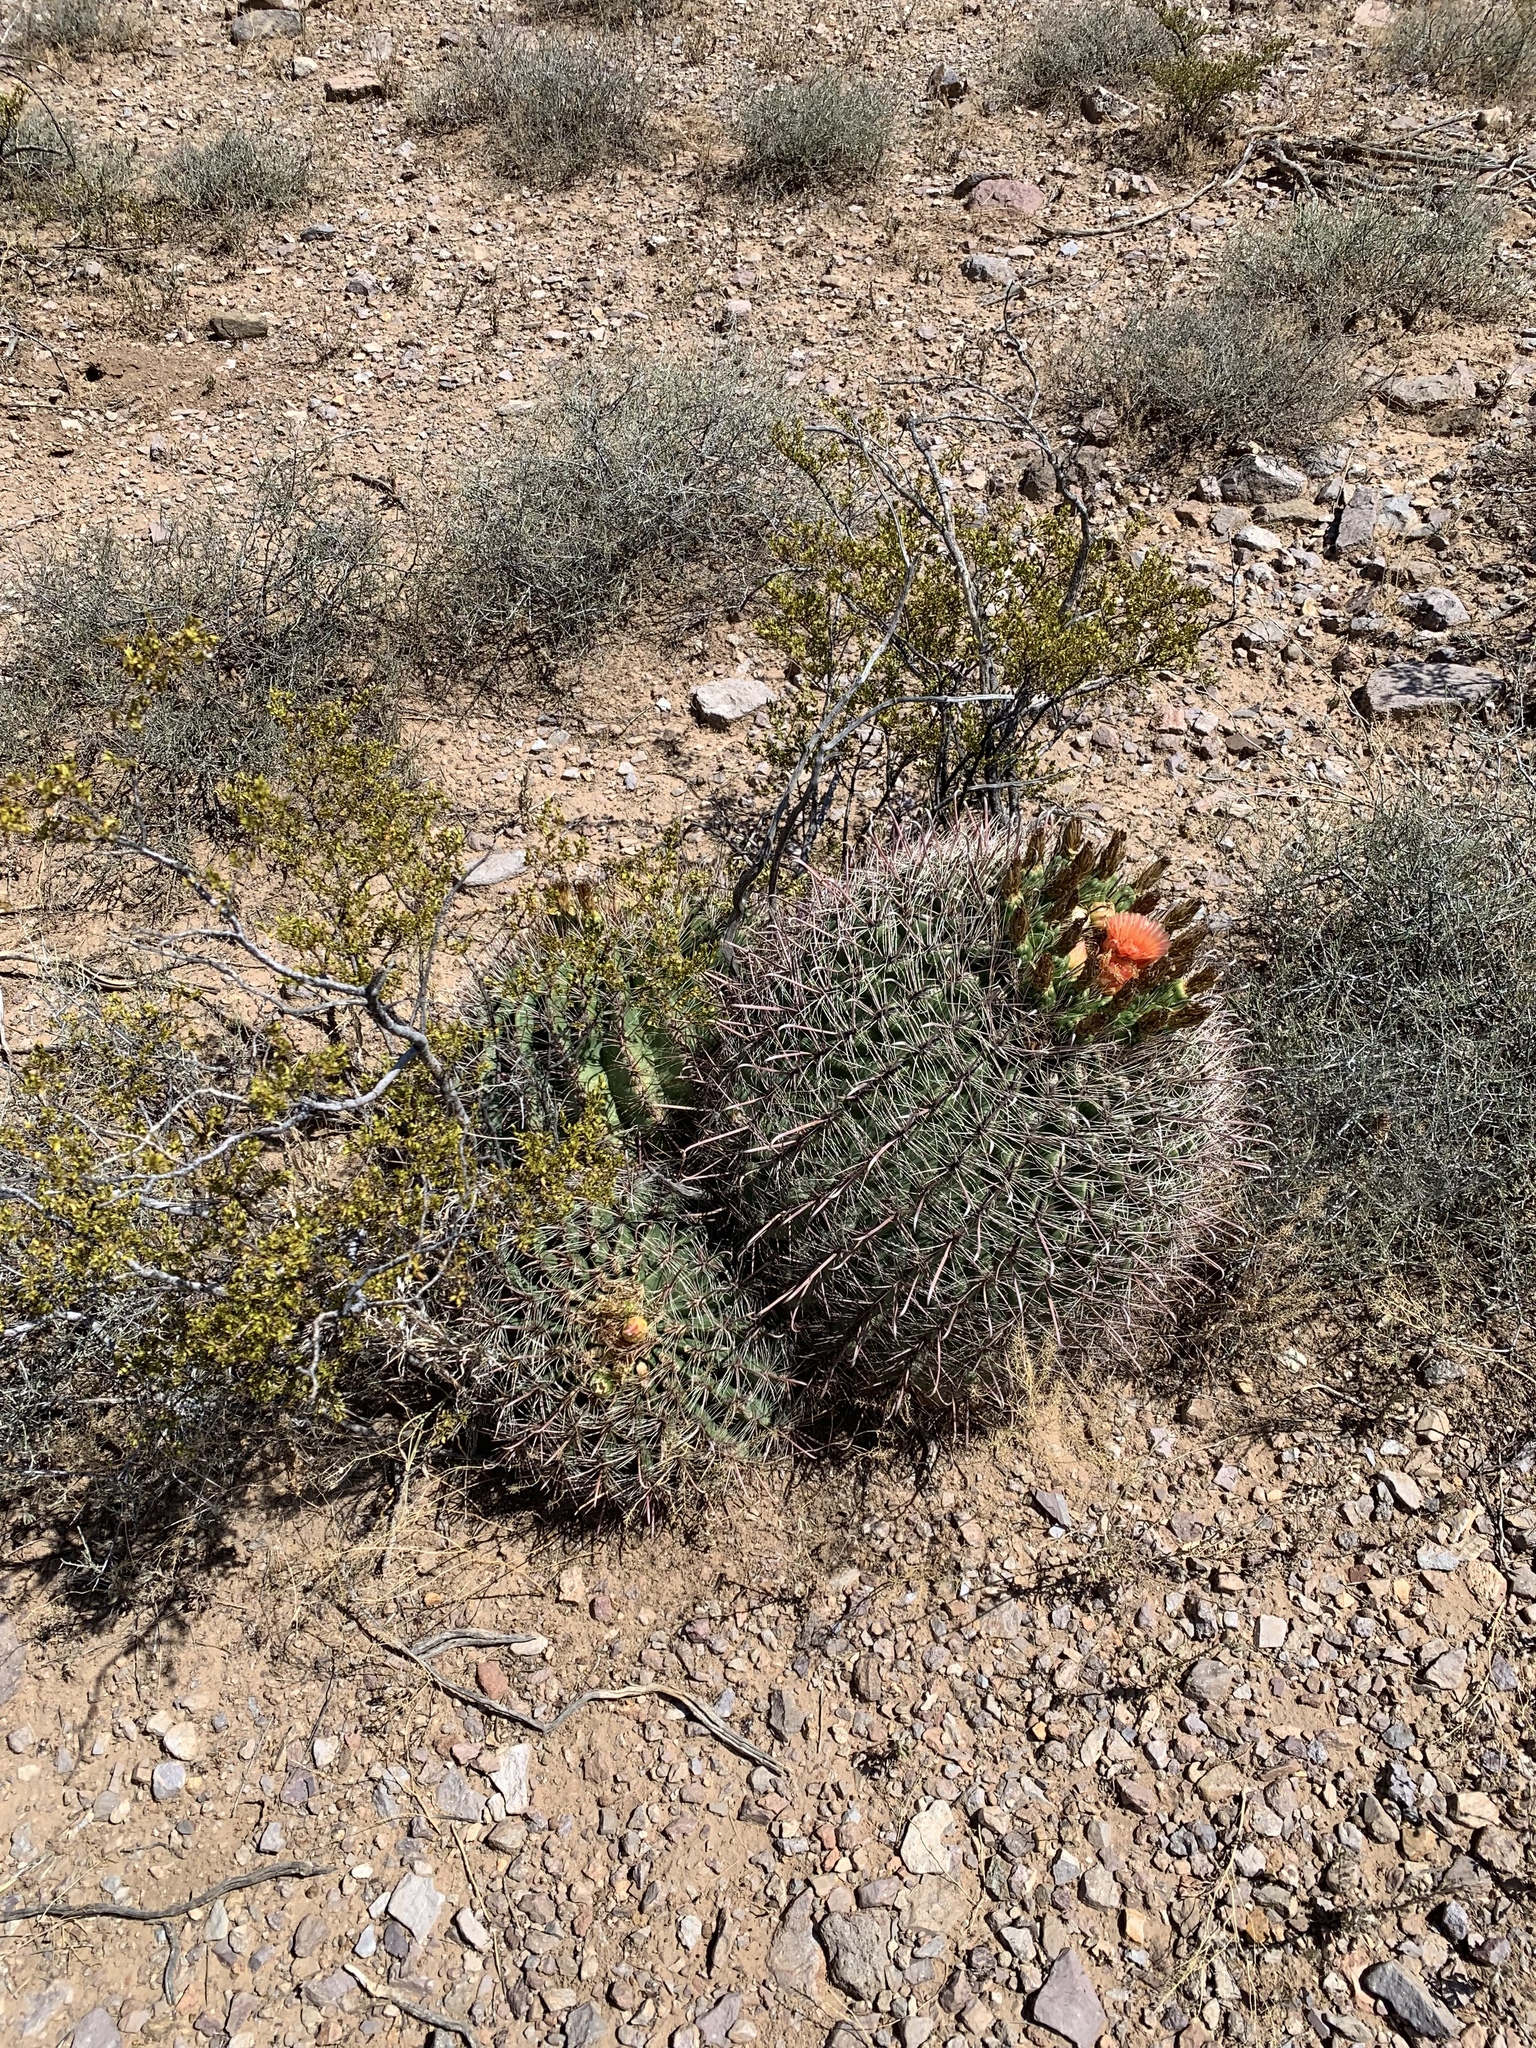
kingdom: Plantae
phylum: Tracheophyta
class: Magnoliopsida
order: Caryophyllales
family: Cactaceae
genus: Ferocactus
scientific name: Ferocactus wislizeni
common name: Candy barrel cactus
